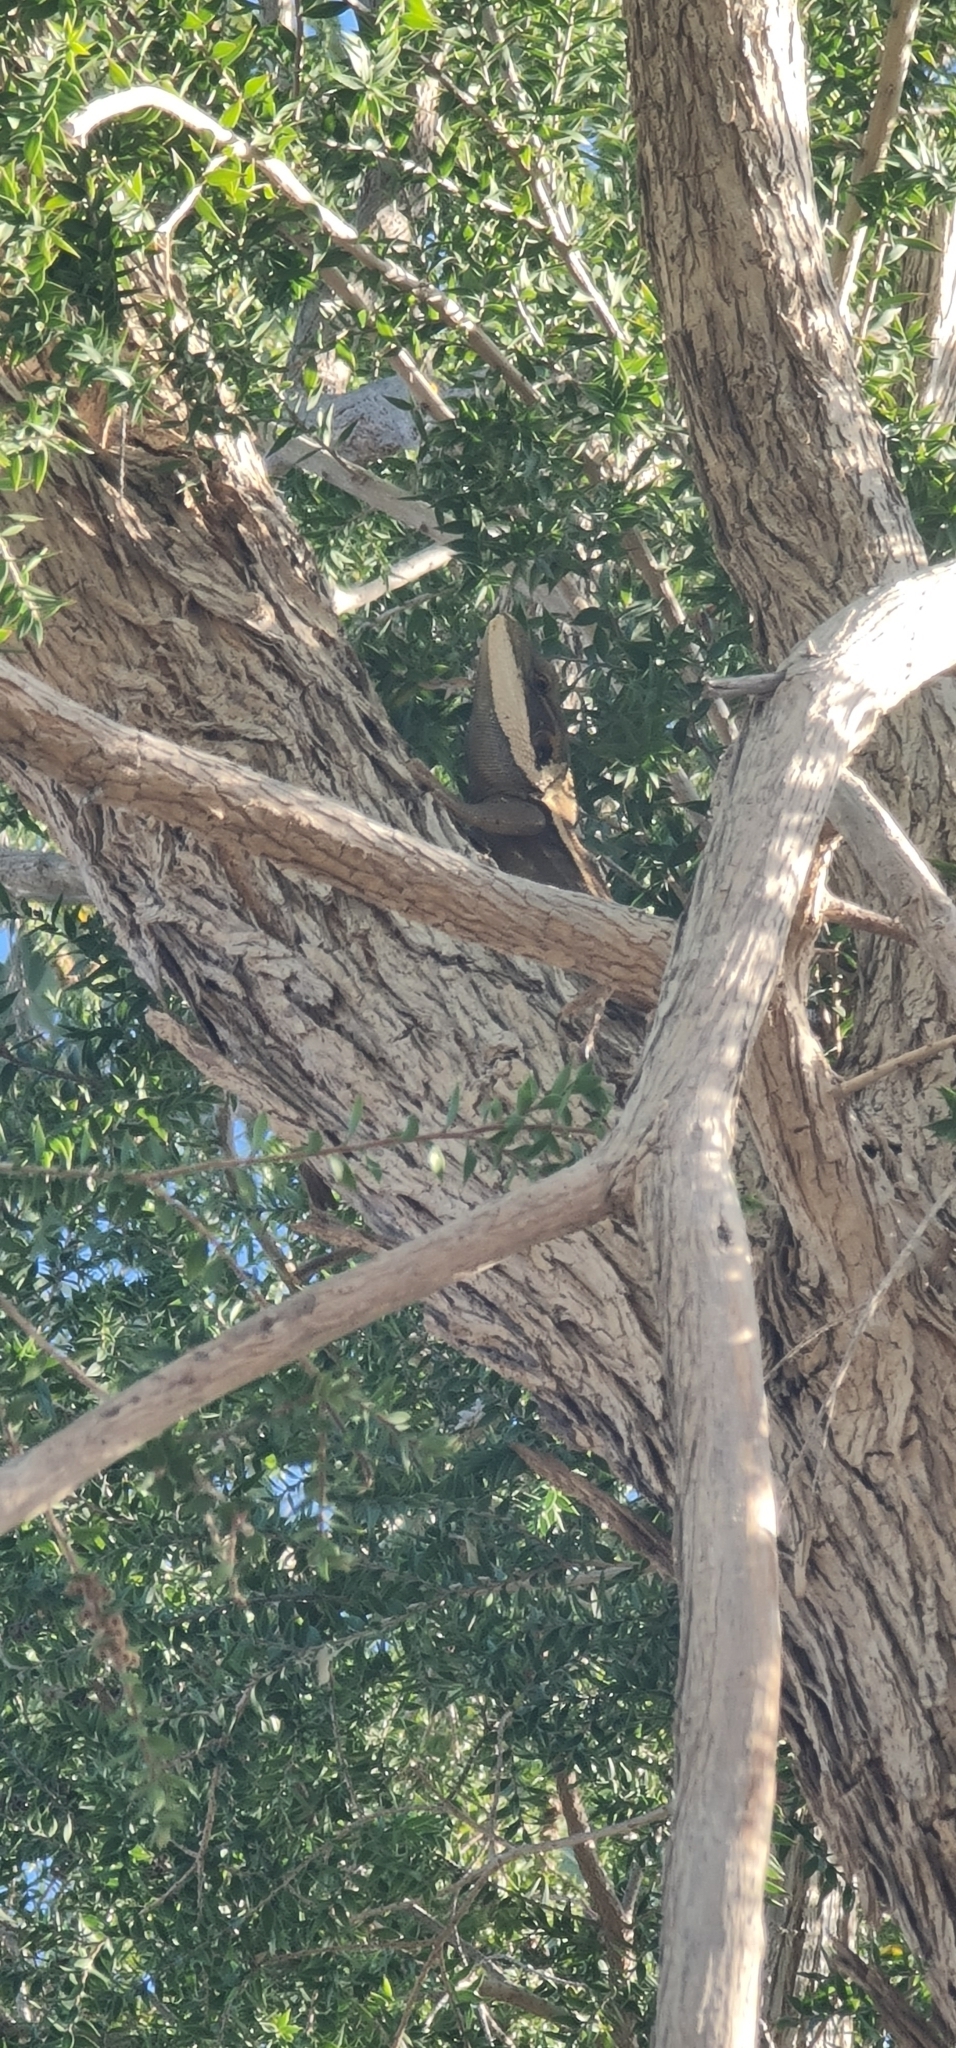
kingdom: Animalia
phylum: Chordata
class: Squamata
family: Agamidae
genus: Lophognathus
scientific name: Lophognathus horneri
